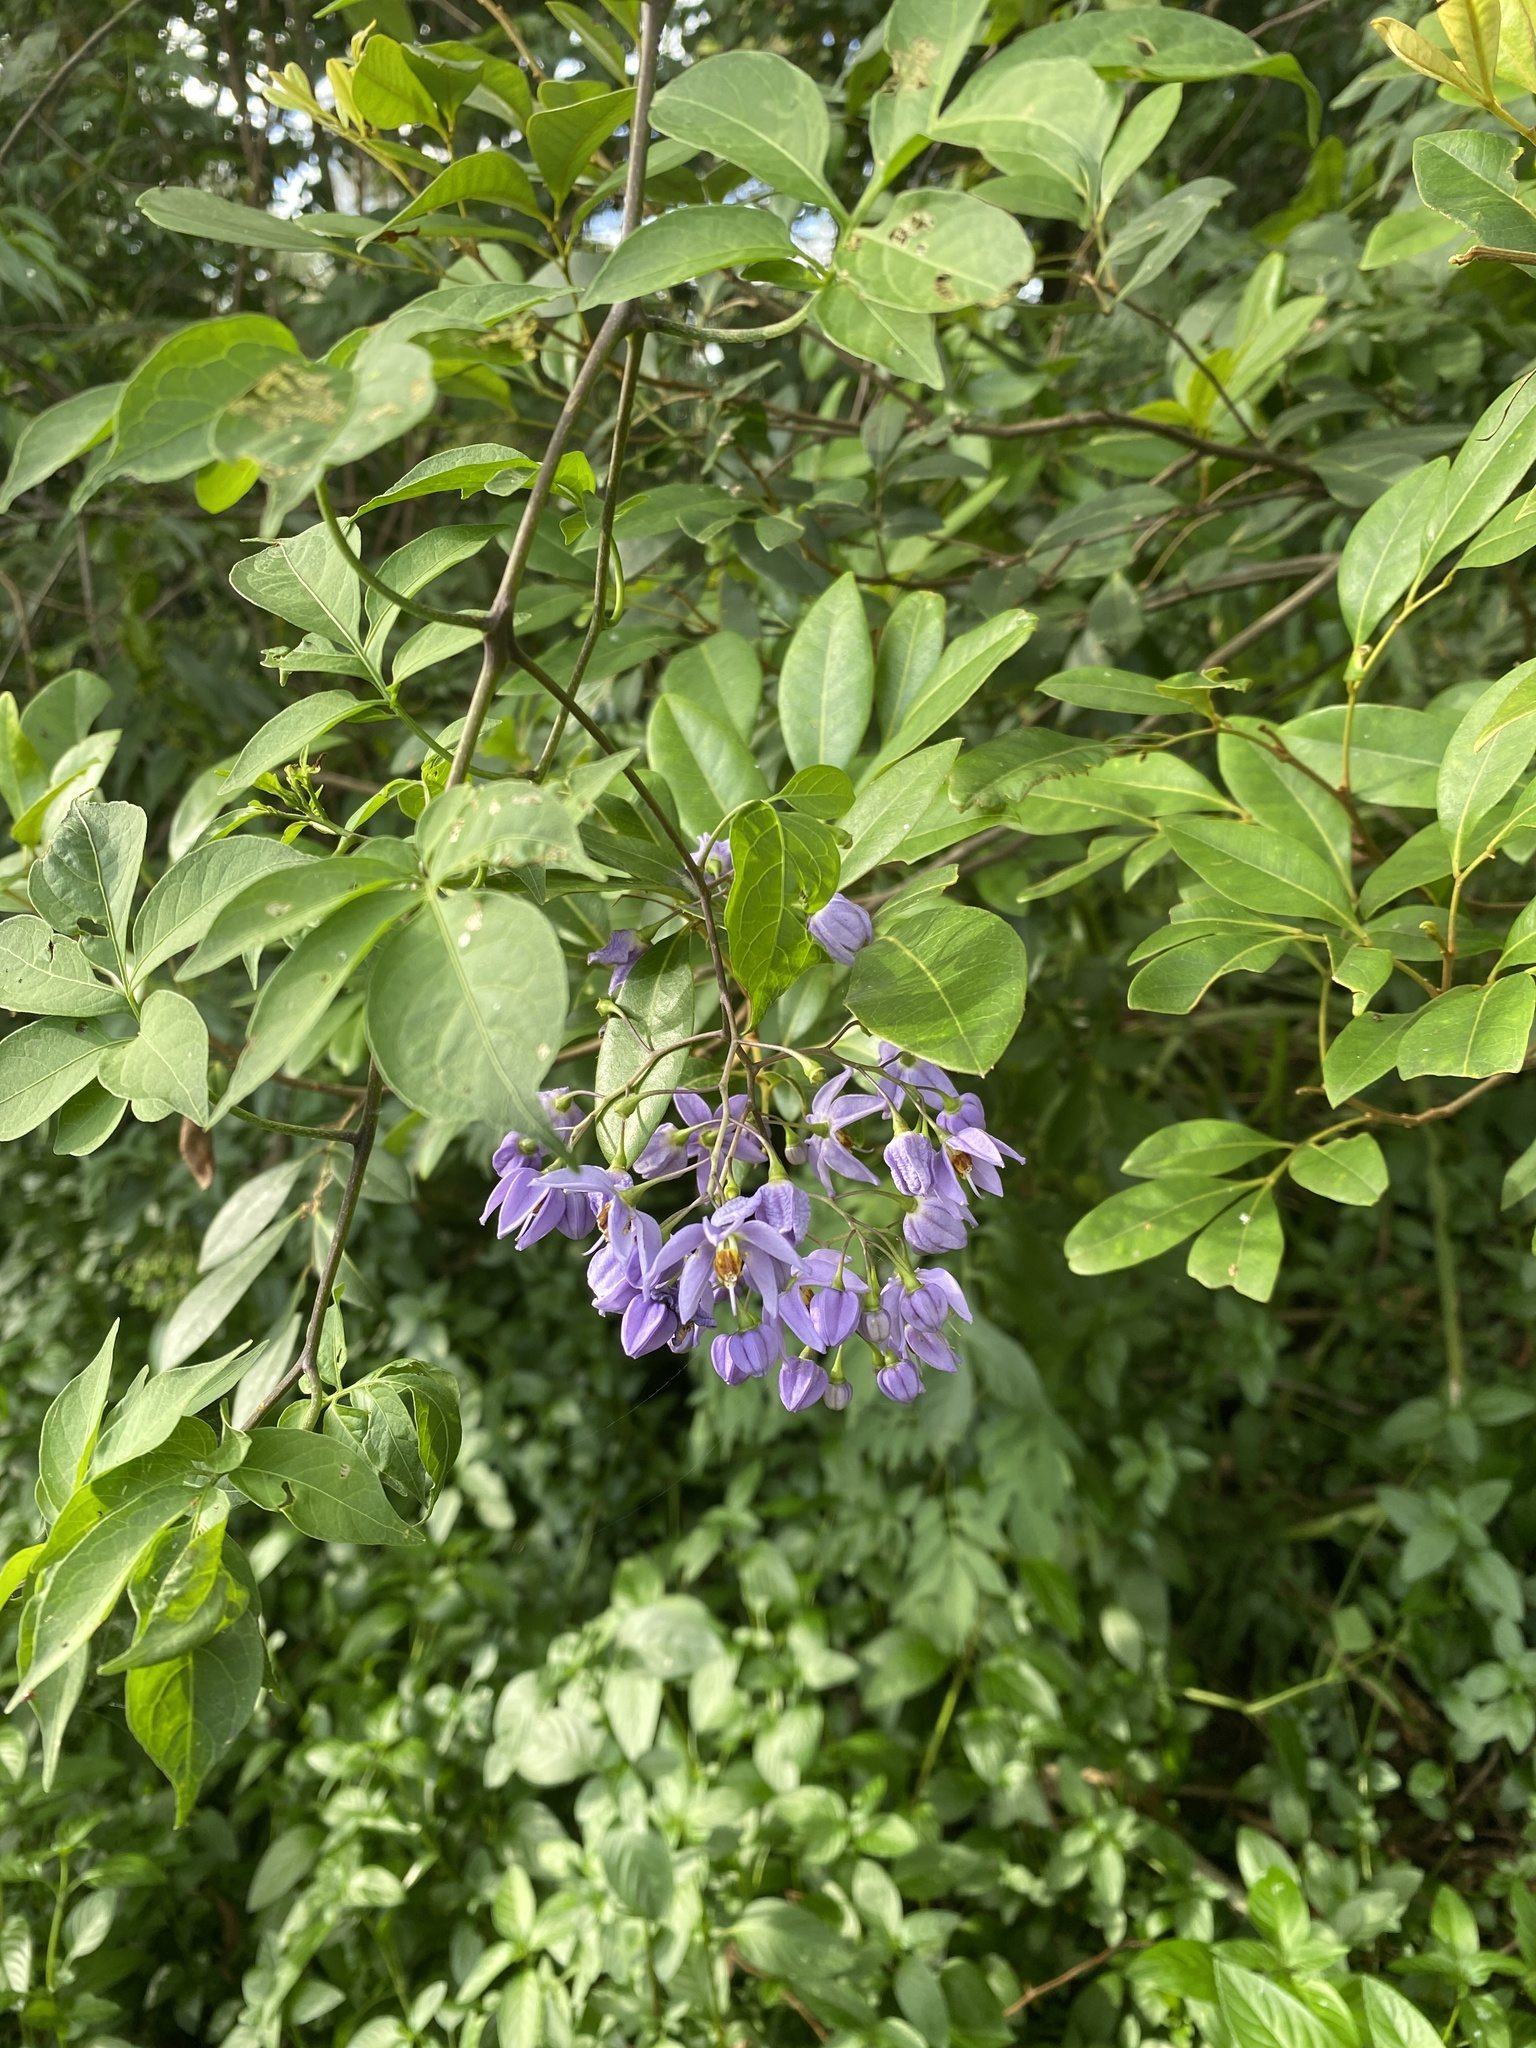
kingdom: Plantae
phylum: Tracheophyta
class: Magnoliopsida
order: Solanales
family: Solanaceae
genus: Solanum
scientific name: Solanum seaforthianum
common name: Brazilian nightshade
